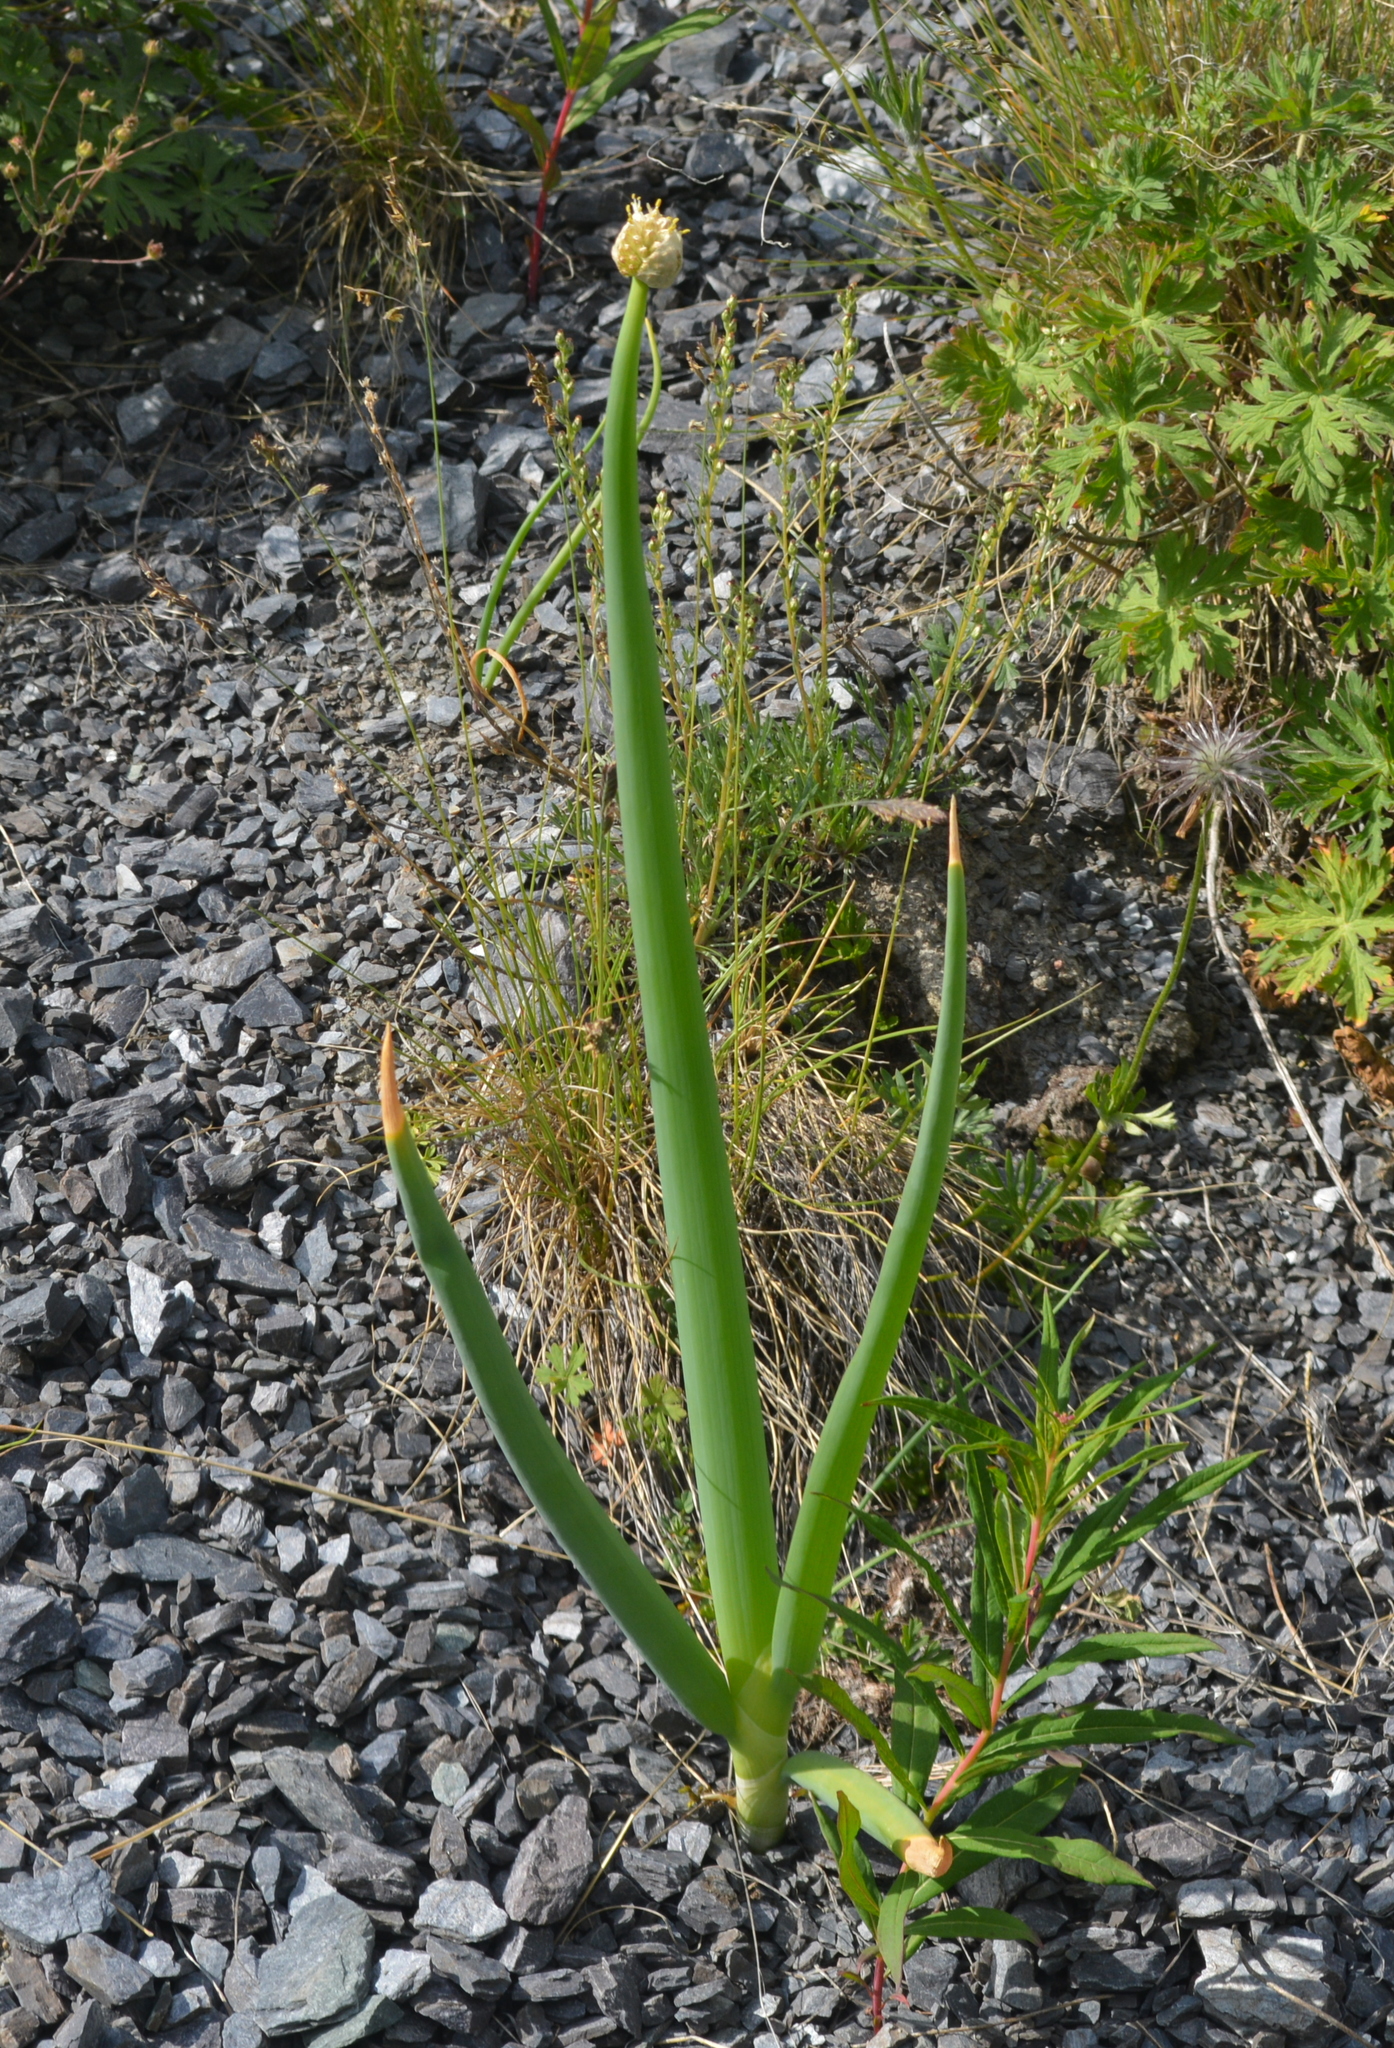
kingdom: Plantae
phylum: Tracheophyta
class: Liliopsida
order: Asparagales
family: Amaryllidaceae
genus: Allium
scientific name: Allium altaicum
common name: Altai onion
